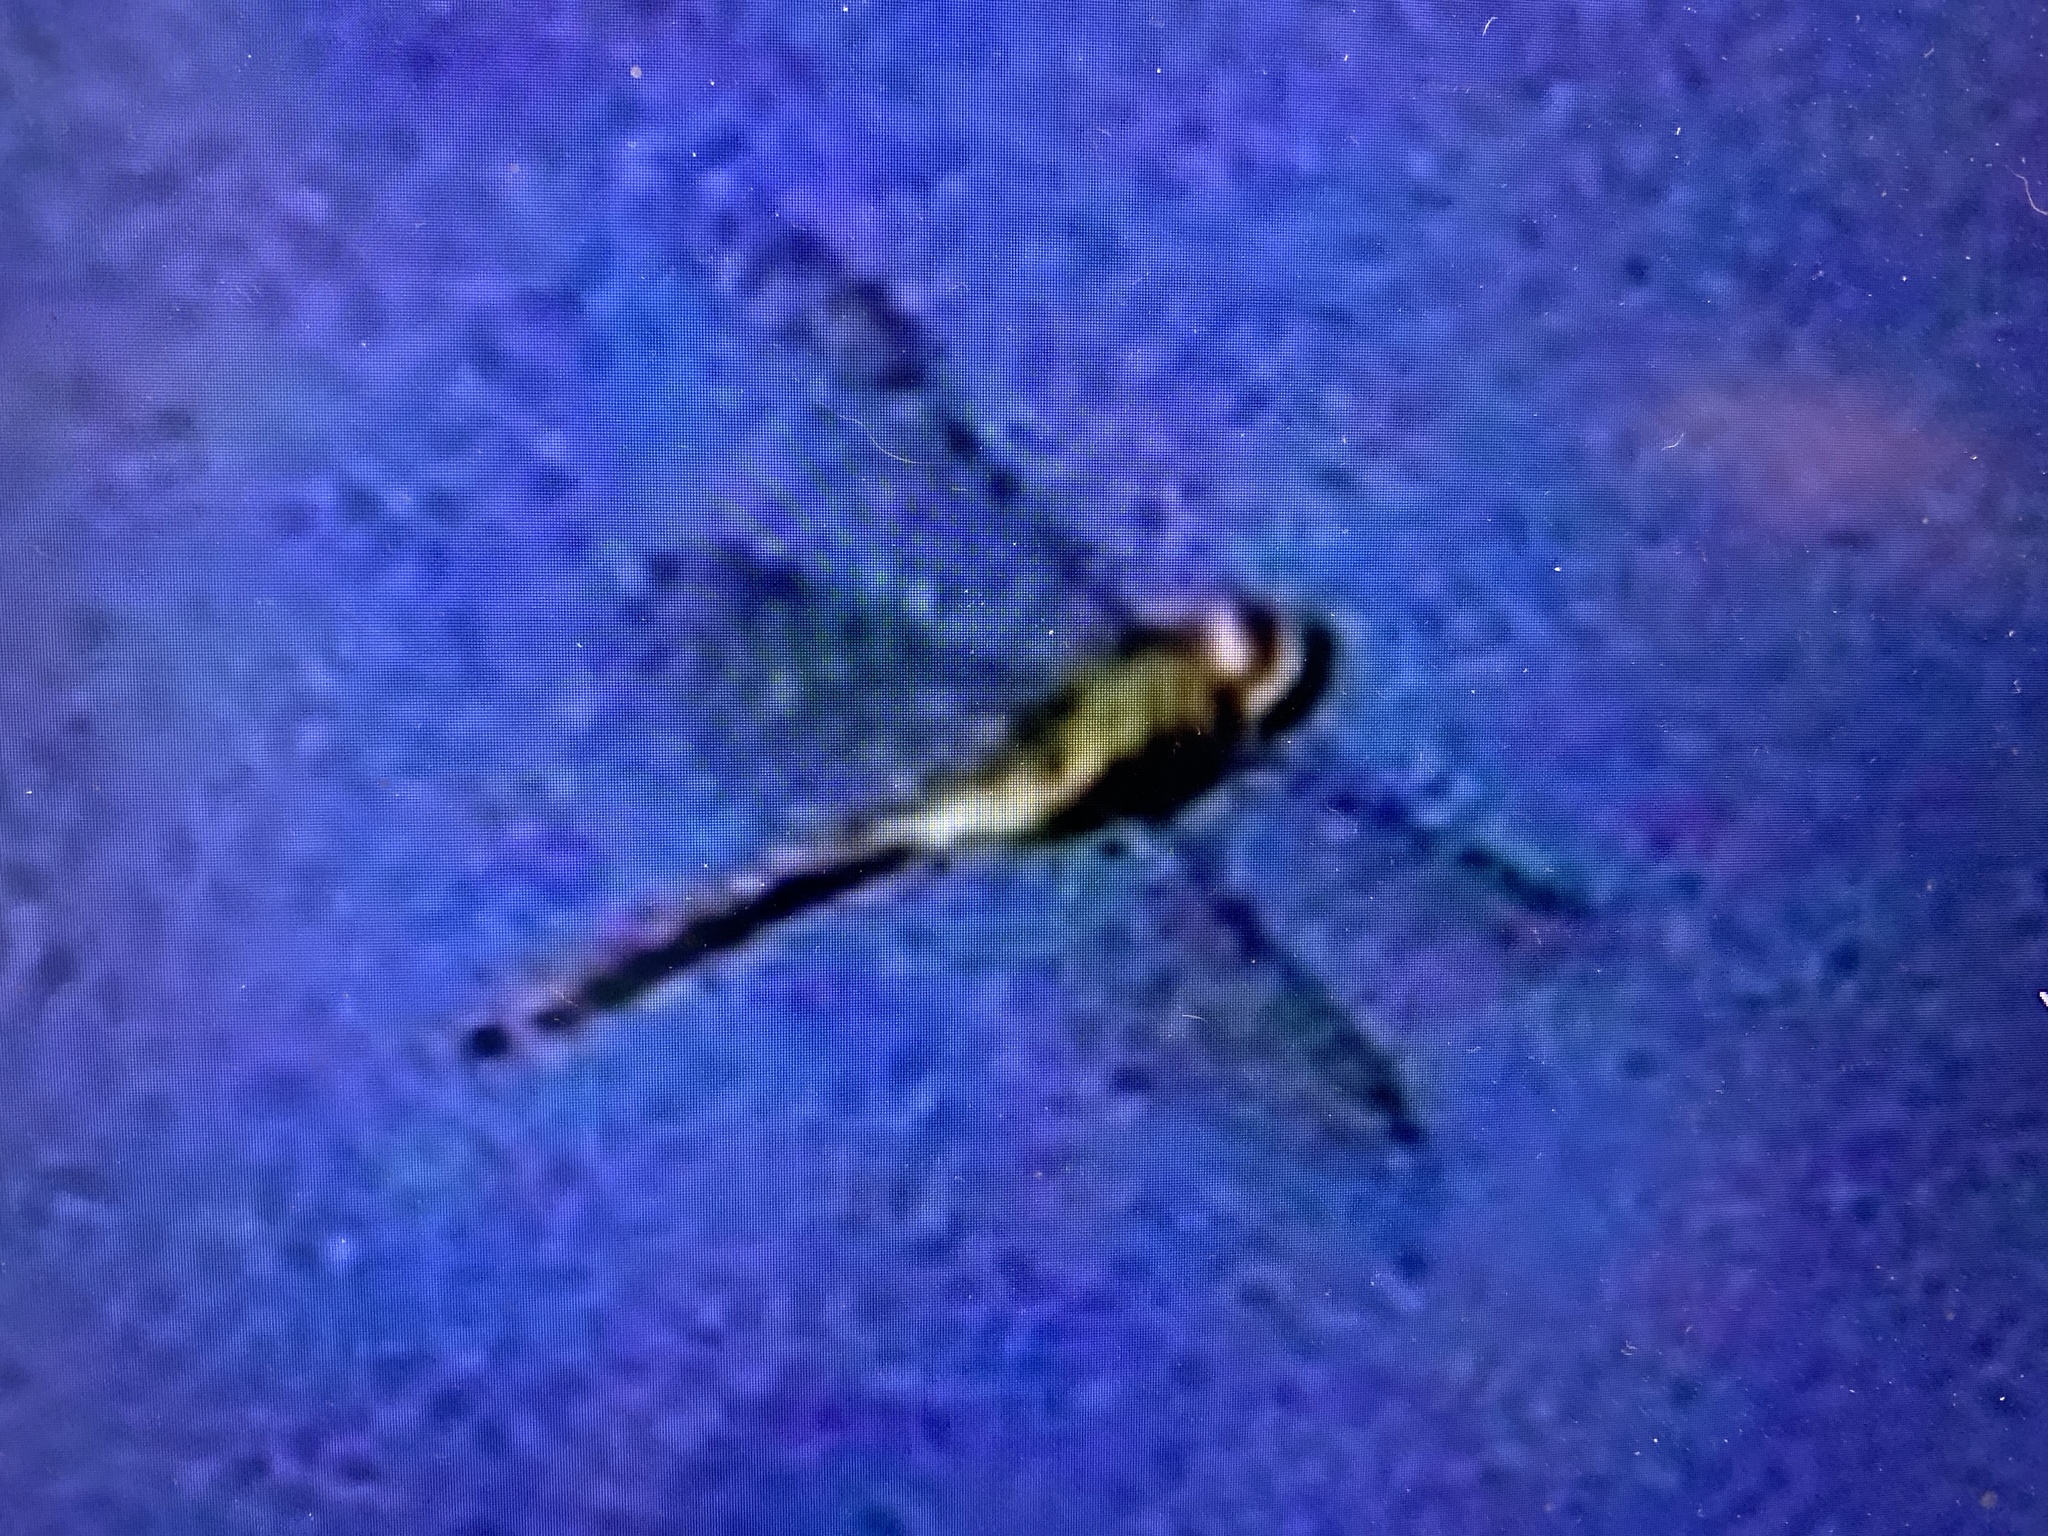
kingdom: Animalia
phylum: Arthropoda
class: Insecta
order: Odonata
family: Aeshnidae
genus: Anax
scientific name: Anax junius
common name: Common green darner
